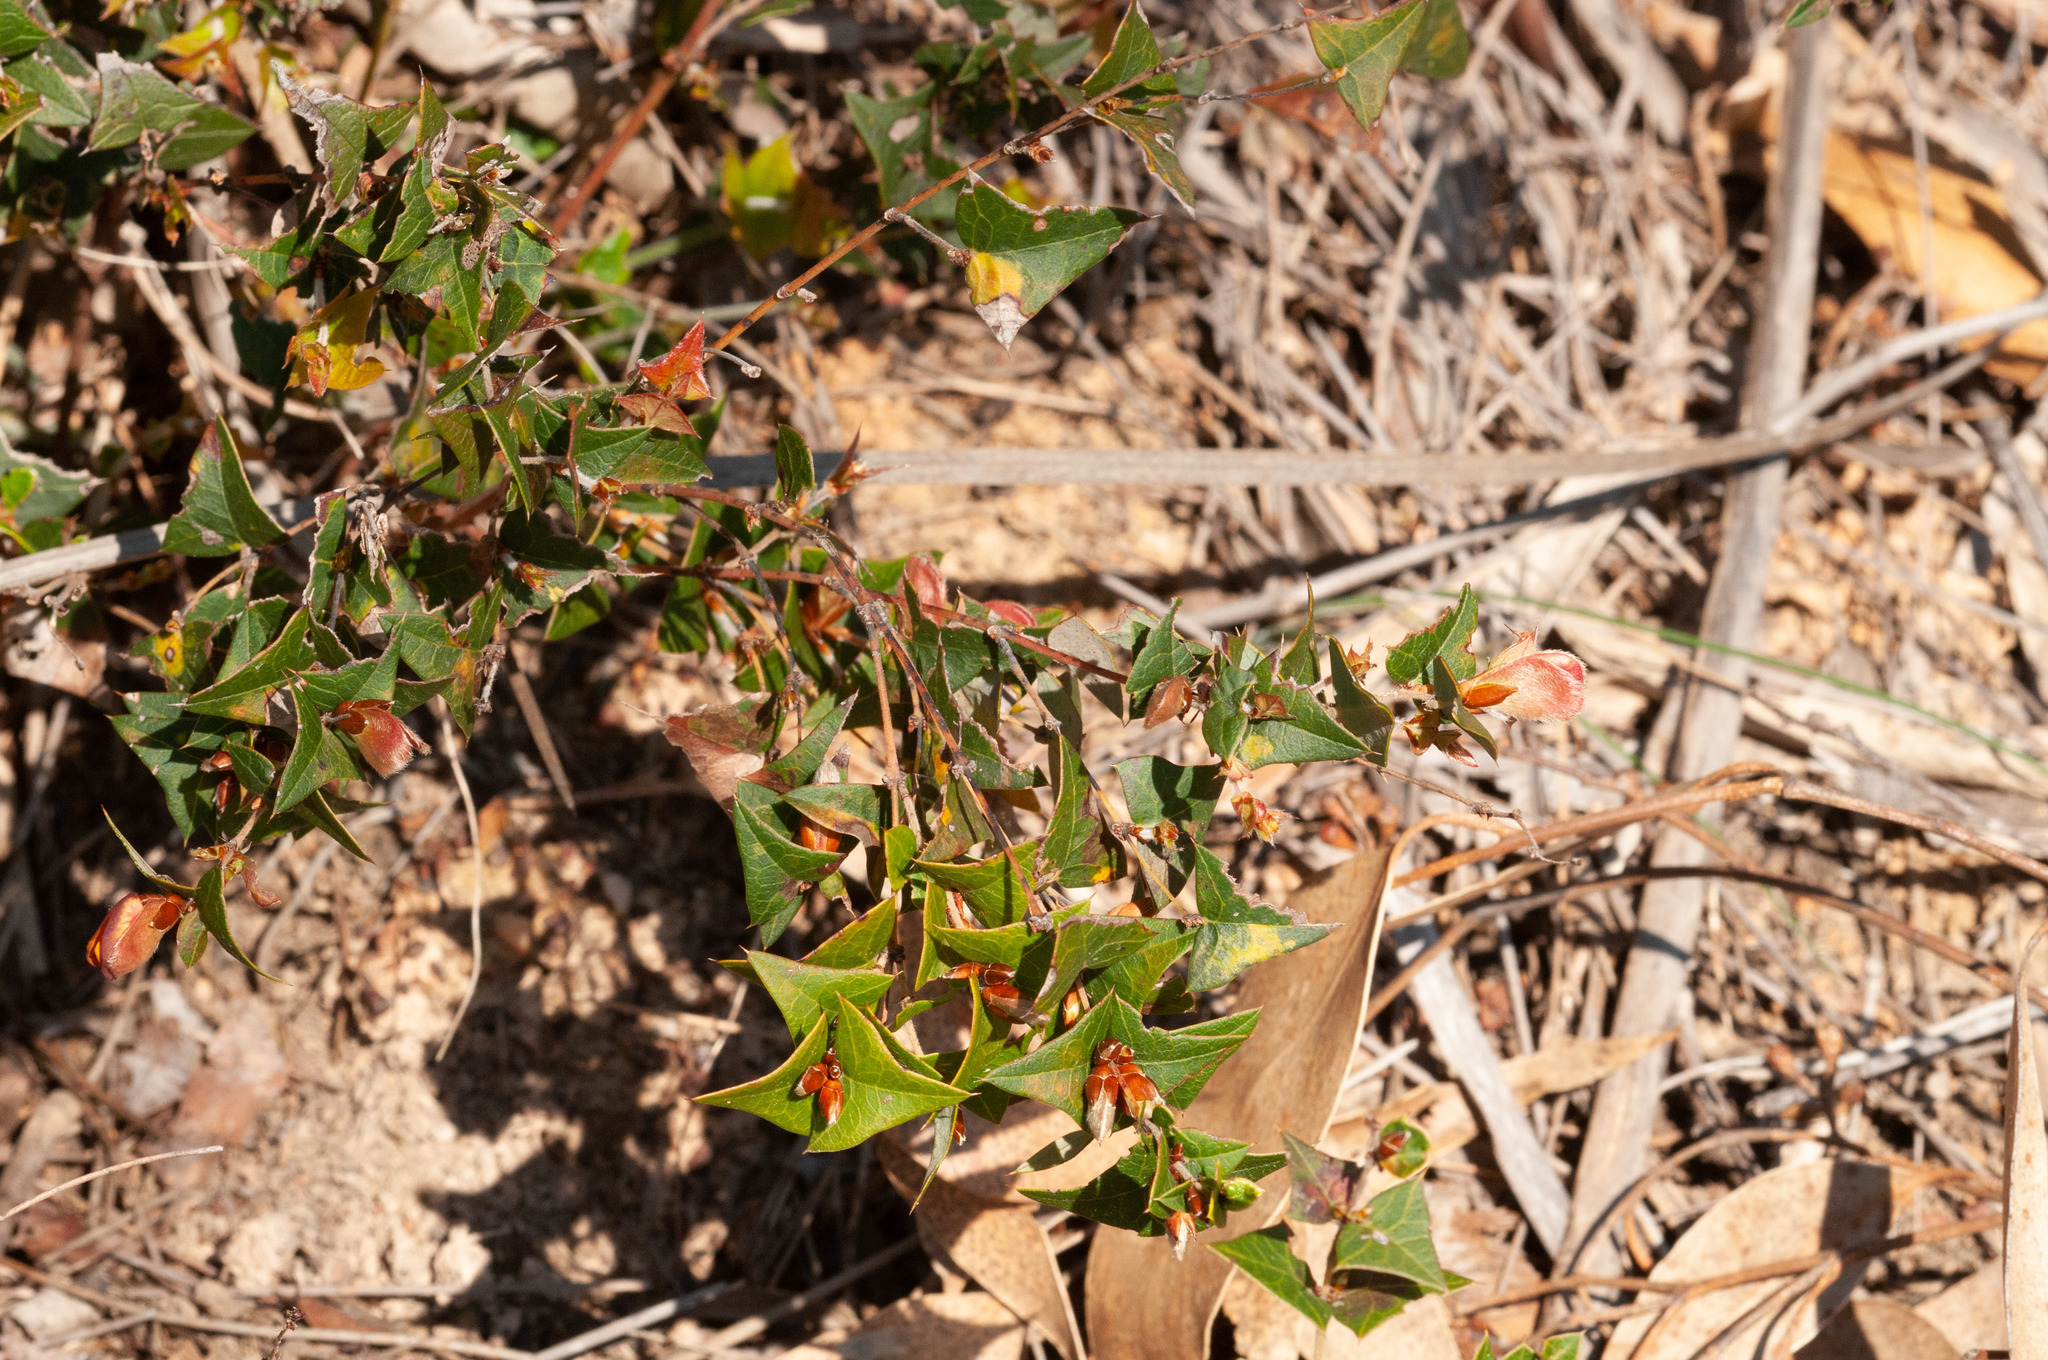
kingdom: Plantae
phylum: Tracheophyta
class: Magnoliopsida
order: Fabales
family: Fabaceae
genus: Platylobium
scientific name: Platylobium obtusangulum
